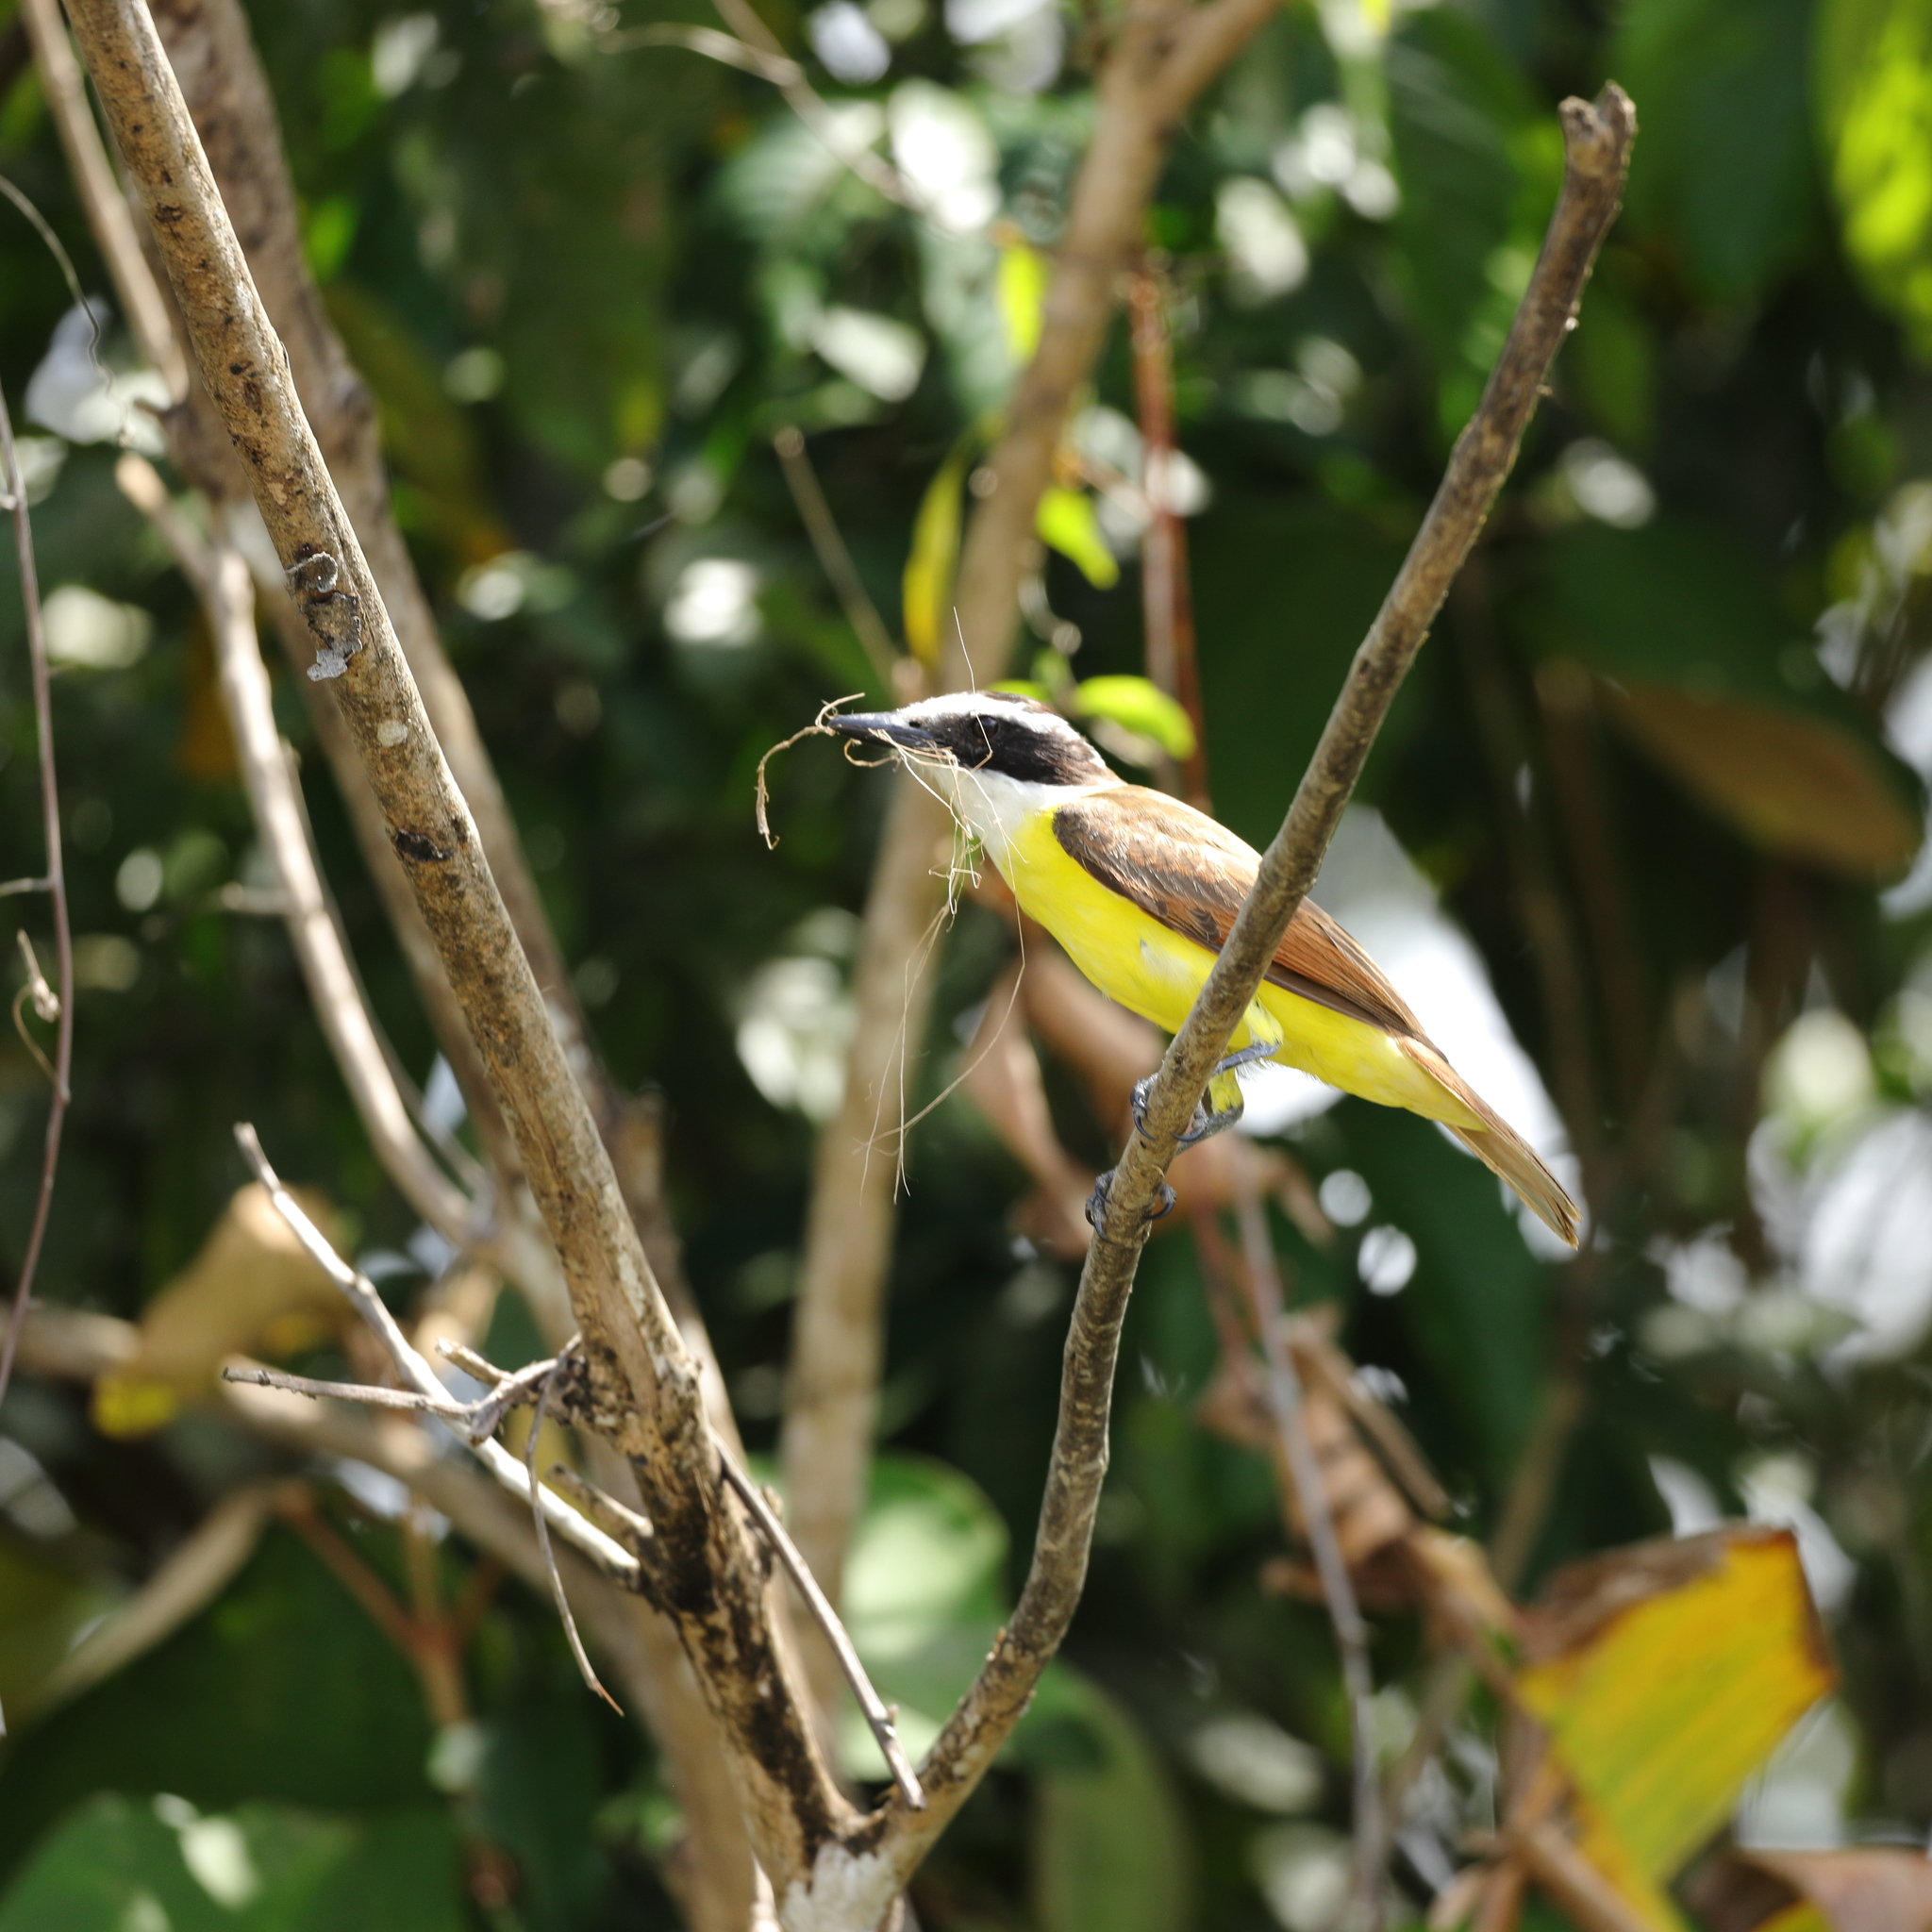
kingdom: Animalia
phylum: Chordata
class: Aves
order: Passeriformes
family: Tyrannidae
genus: Pitangus
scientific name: Pitangus sulphuratus
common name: Great kiskadee
